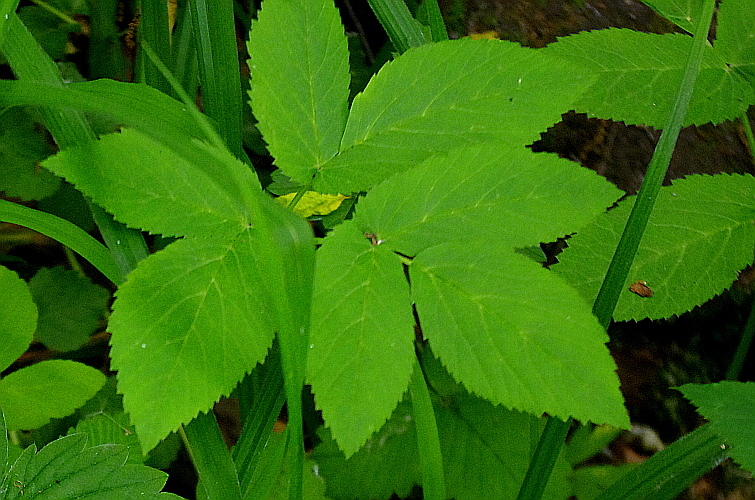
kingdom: Plantae
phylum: Tracheophyta
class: Magnoliopsida
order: Apiales
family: Apiaceae
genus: Aegopodium
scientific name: Aegopodium podagraria
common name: Ground-elder
